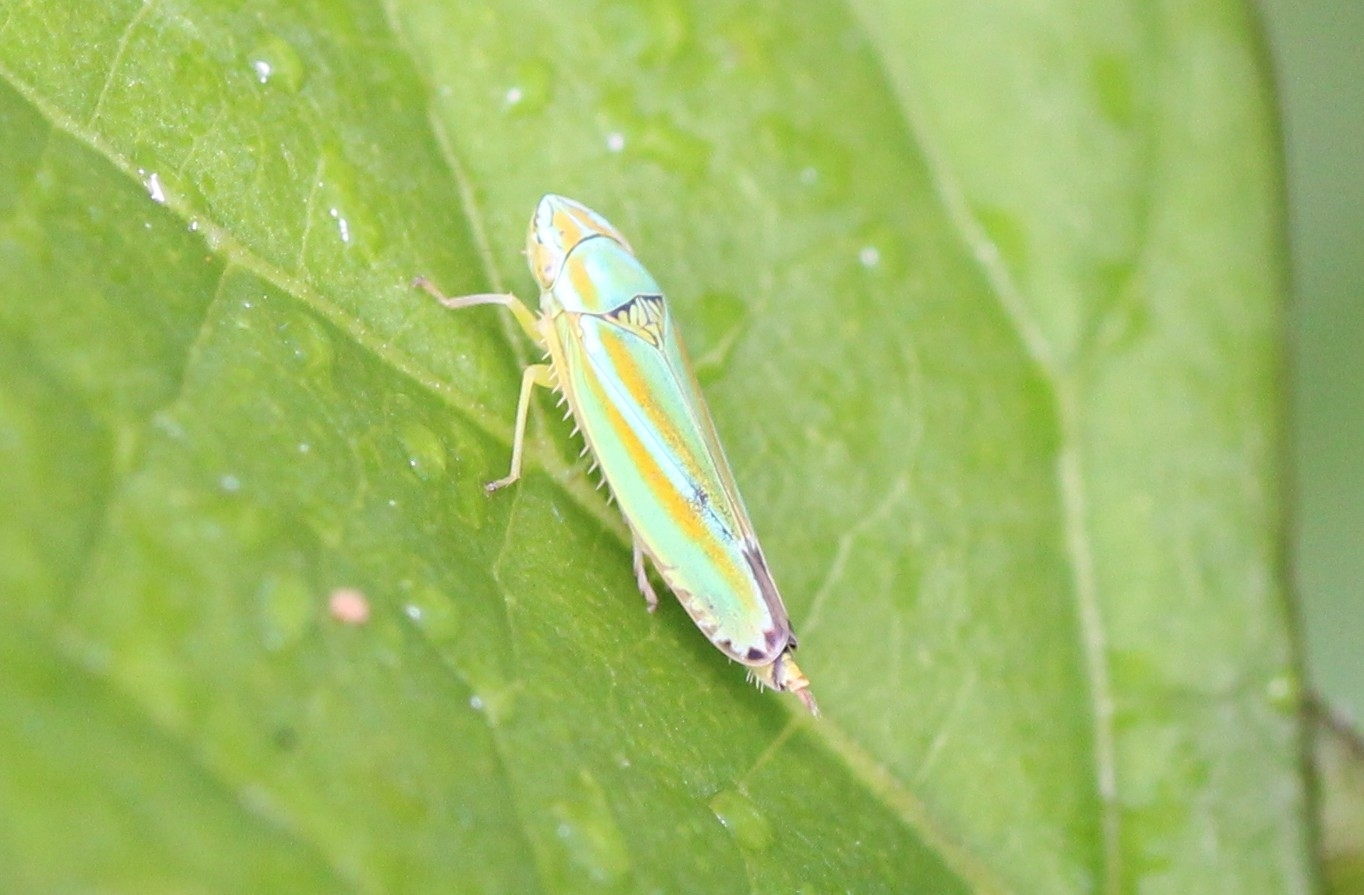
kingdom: Animalia
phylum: Arthropoda
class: Insecta
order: Hemiptera
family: Cicadellidae
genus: Graphocephala
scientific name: Graphocephala versuta
